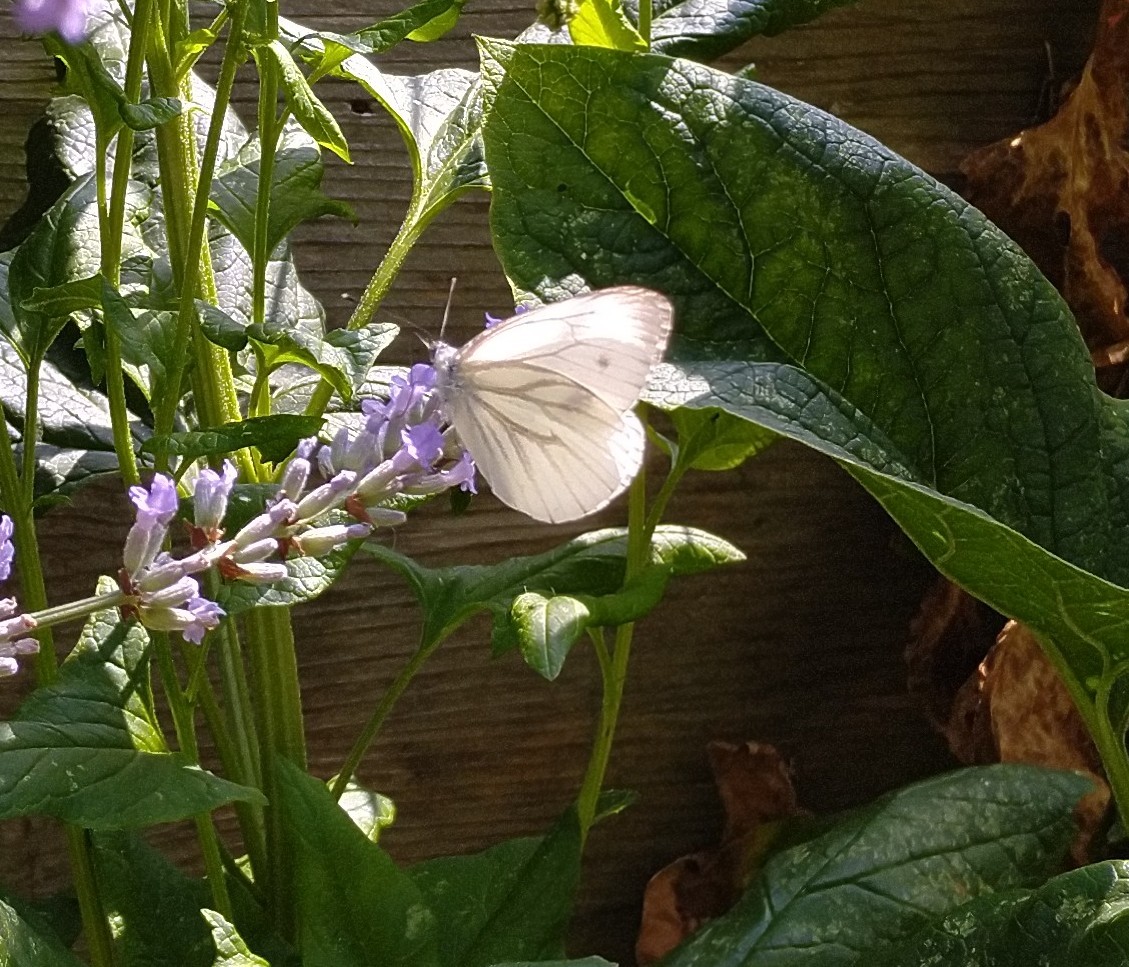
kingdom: Animalia
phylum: Arthropoda
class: Insecta
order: Lepidoptera
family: Pieridae
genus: Pieris
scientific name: Pieris napi
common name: Green-veined white
